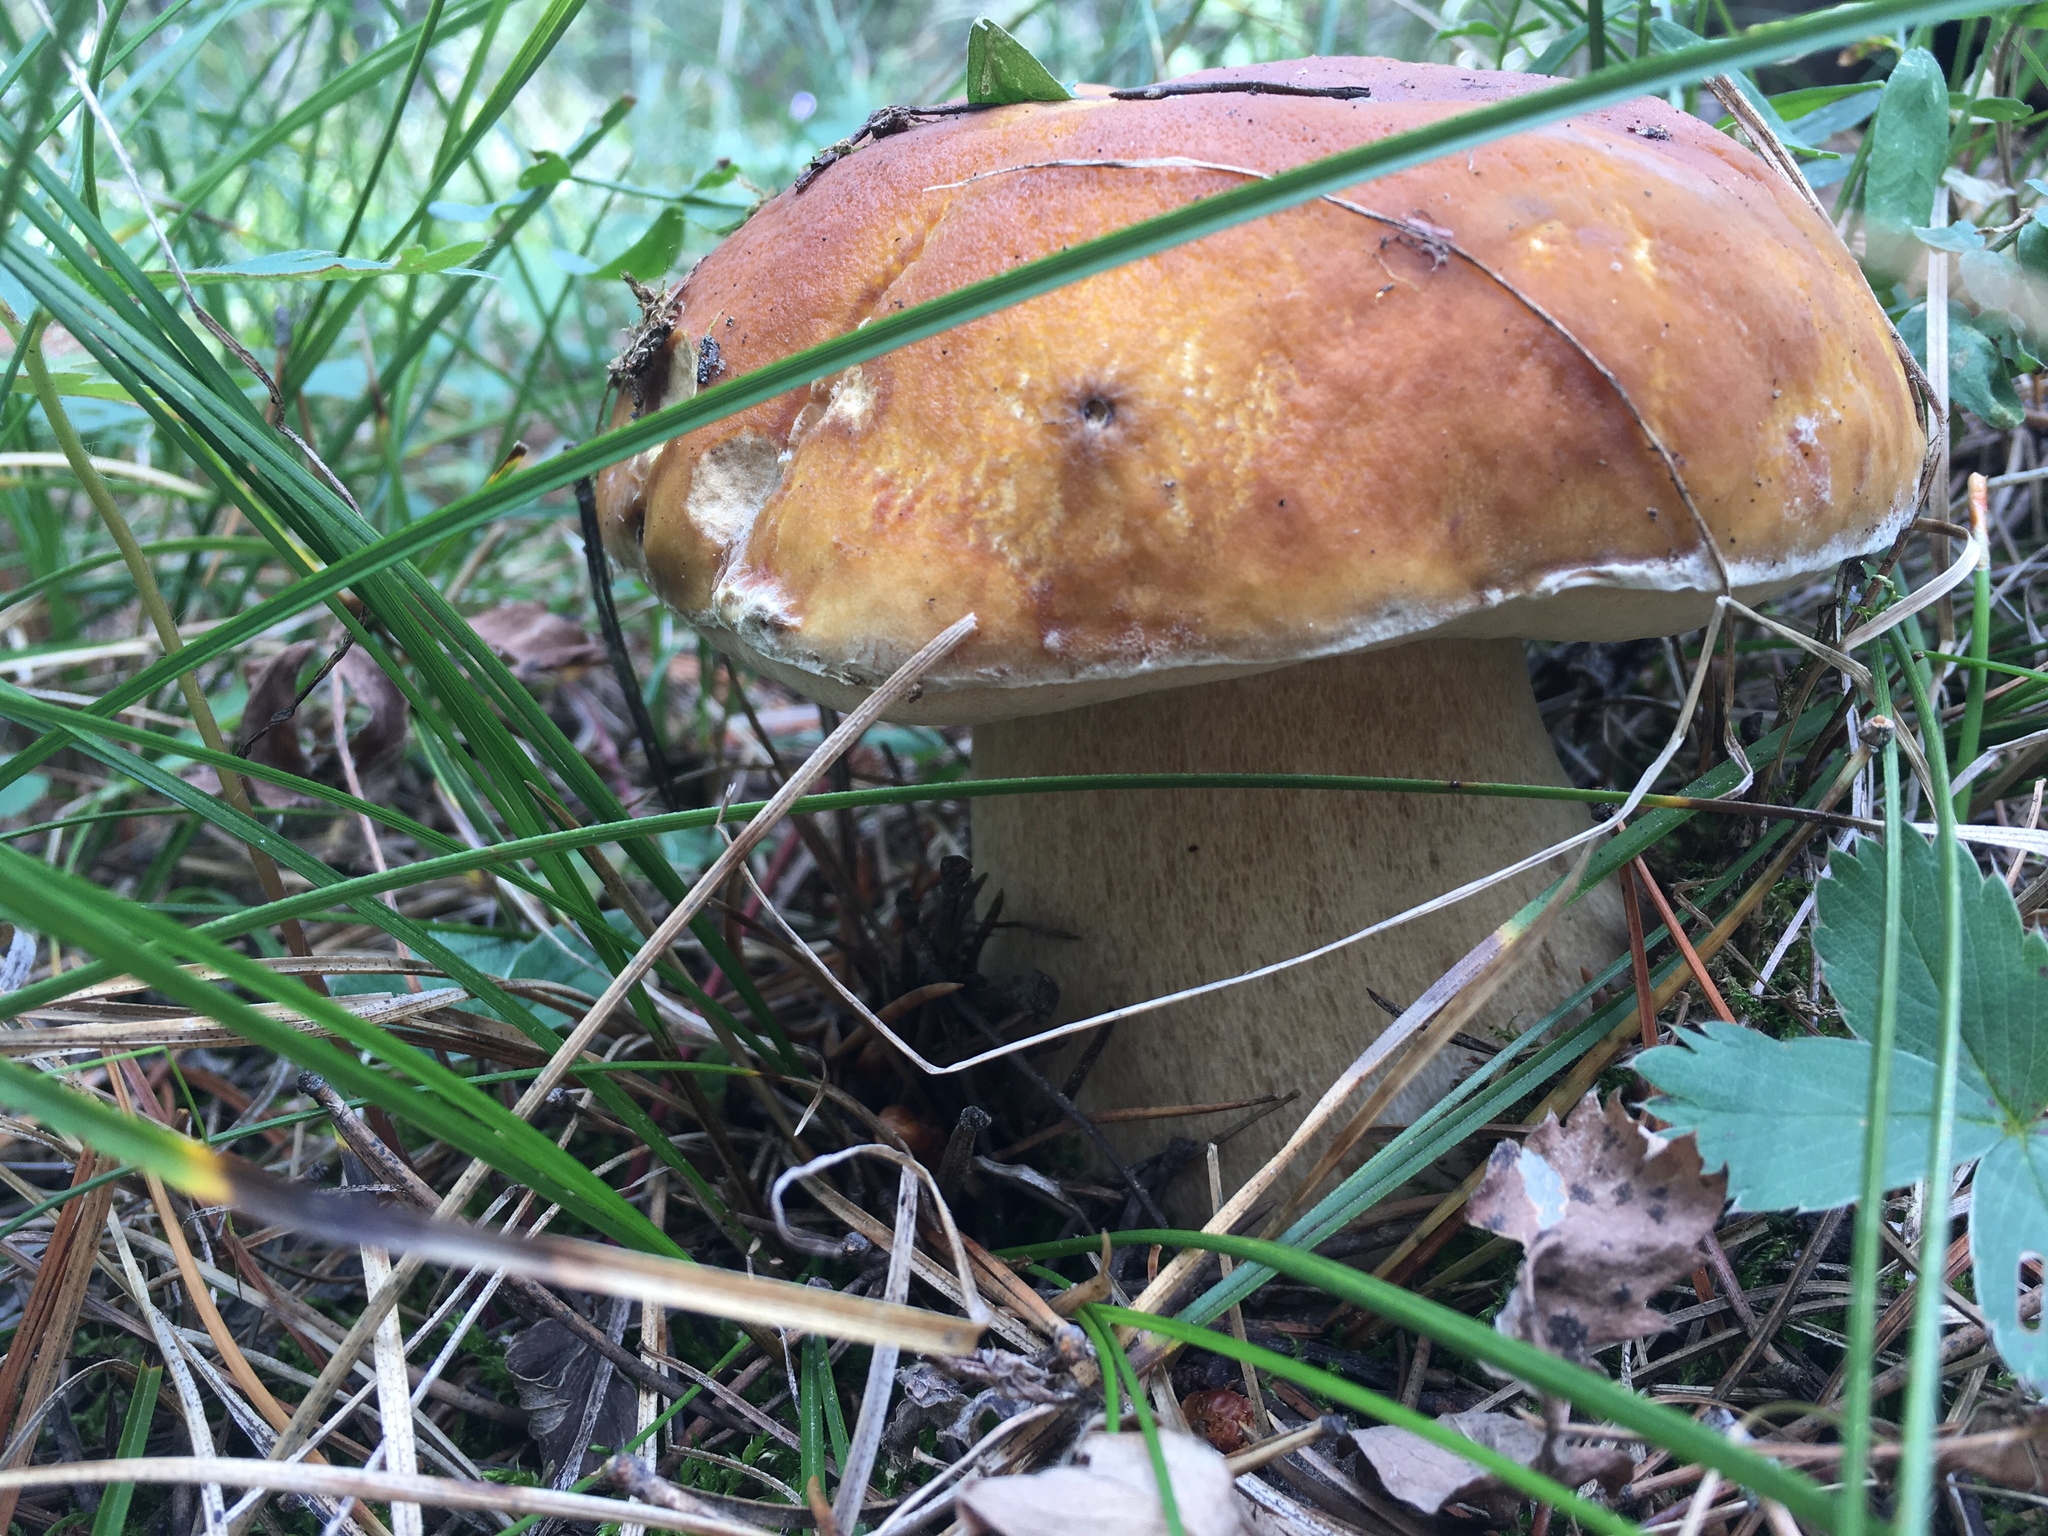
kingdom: Fungi
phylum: Basidiomycota
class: Agaricomycetes
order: Boletales
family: Boletaceae
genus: Boletus
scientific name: Boletus edulis
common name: Cep
